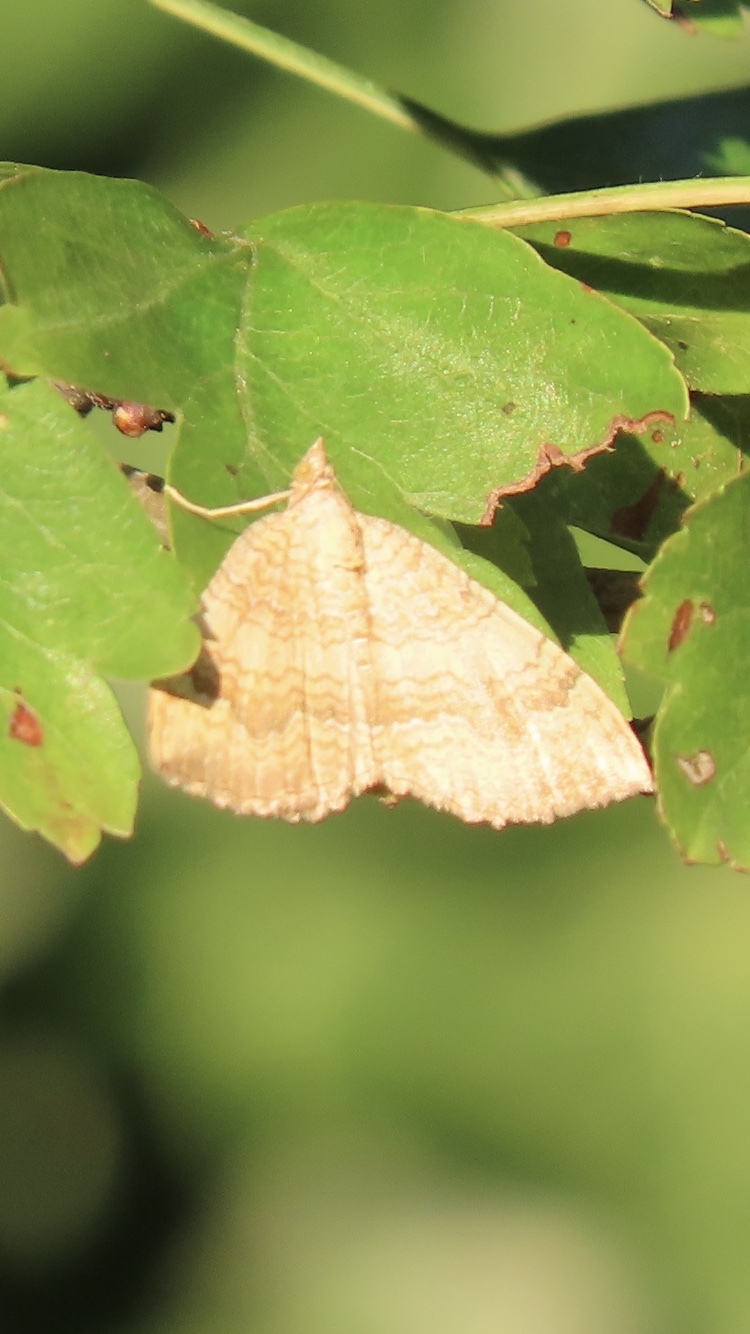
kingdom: Animalia
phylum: Arthropoda
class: Insecta
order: Lepidoptera
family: Geometridae
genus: Camptogramma
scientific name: Camptogramma bilineata
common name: Yellow shell
